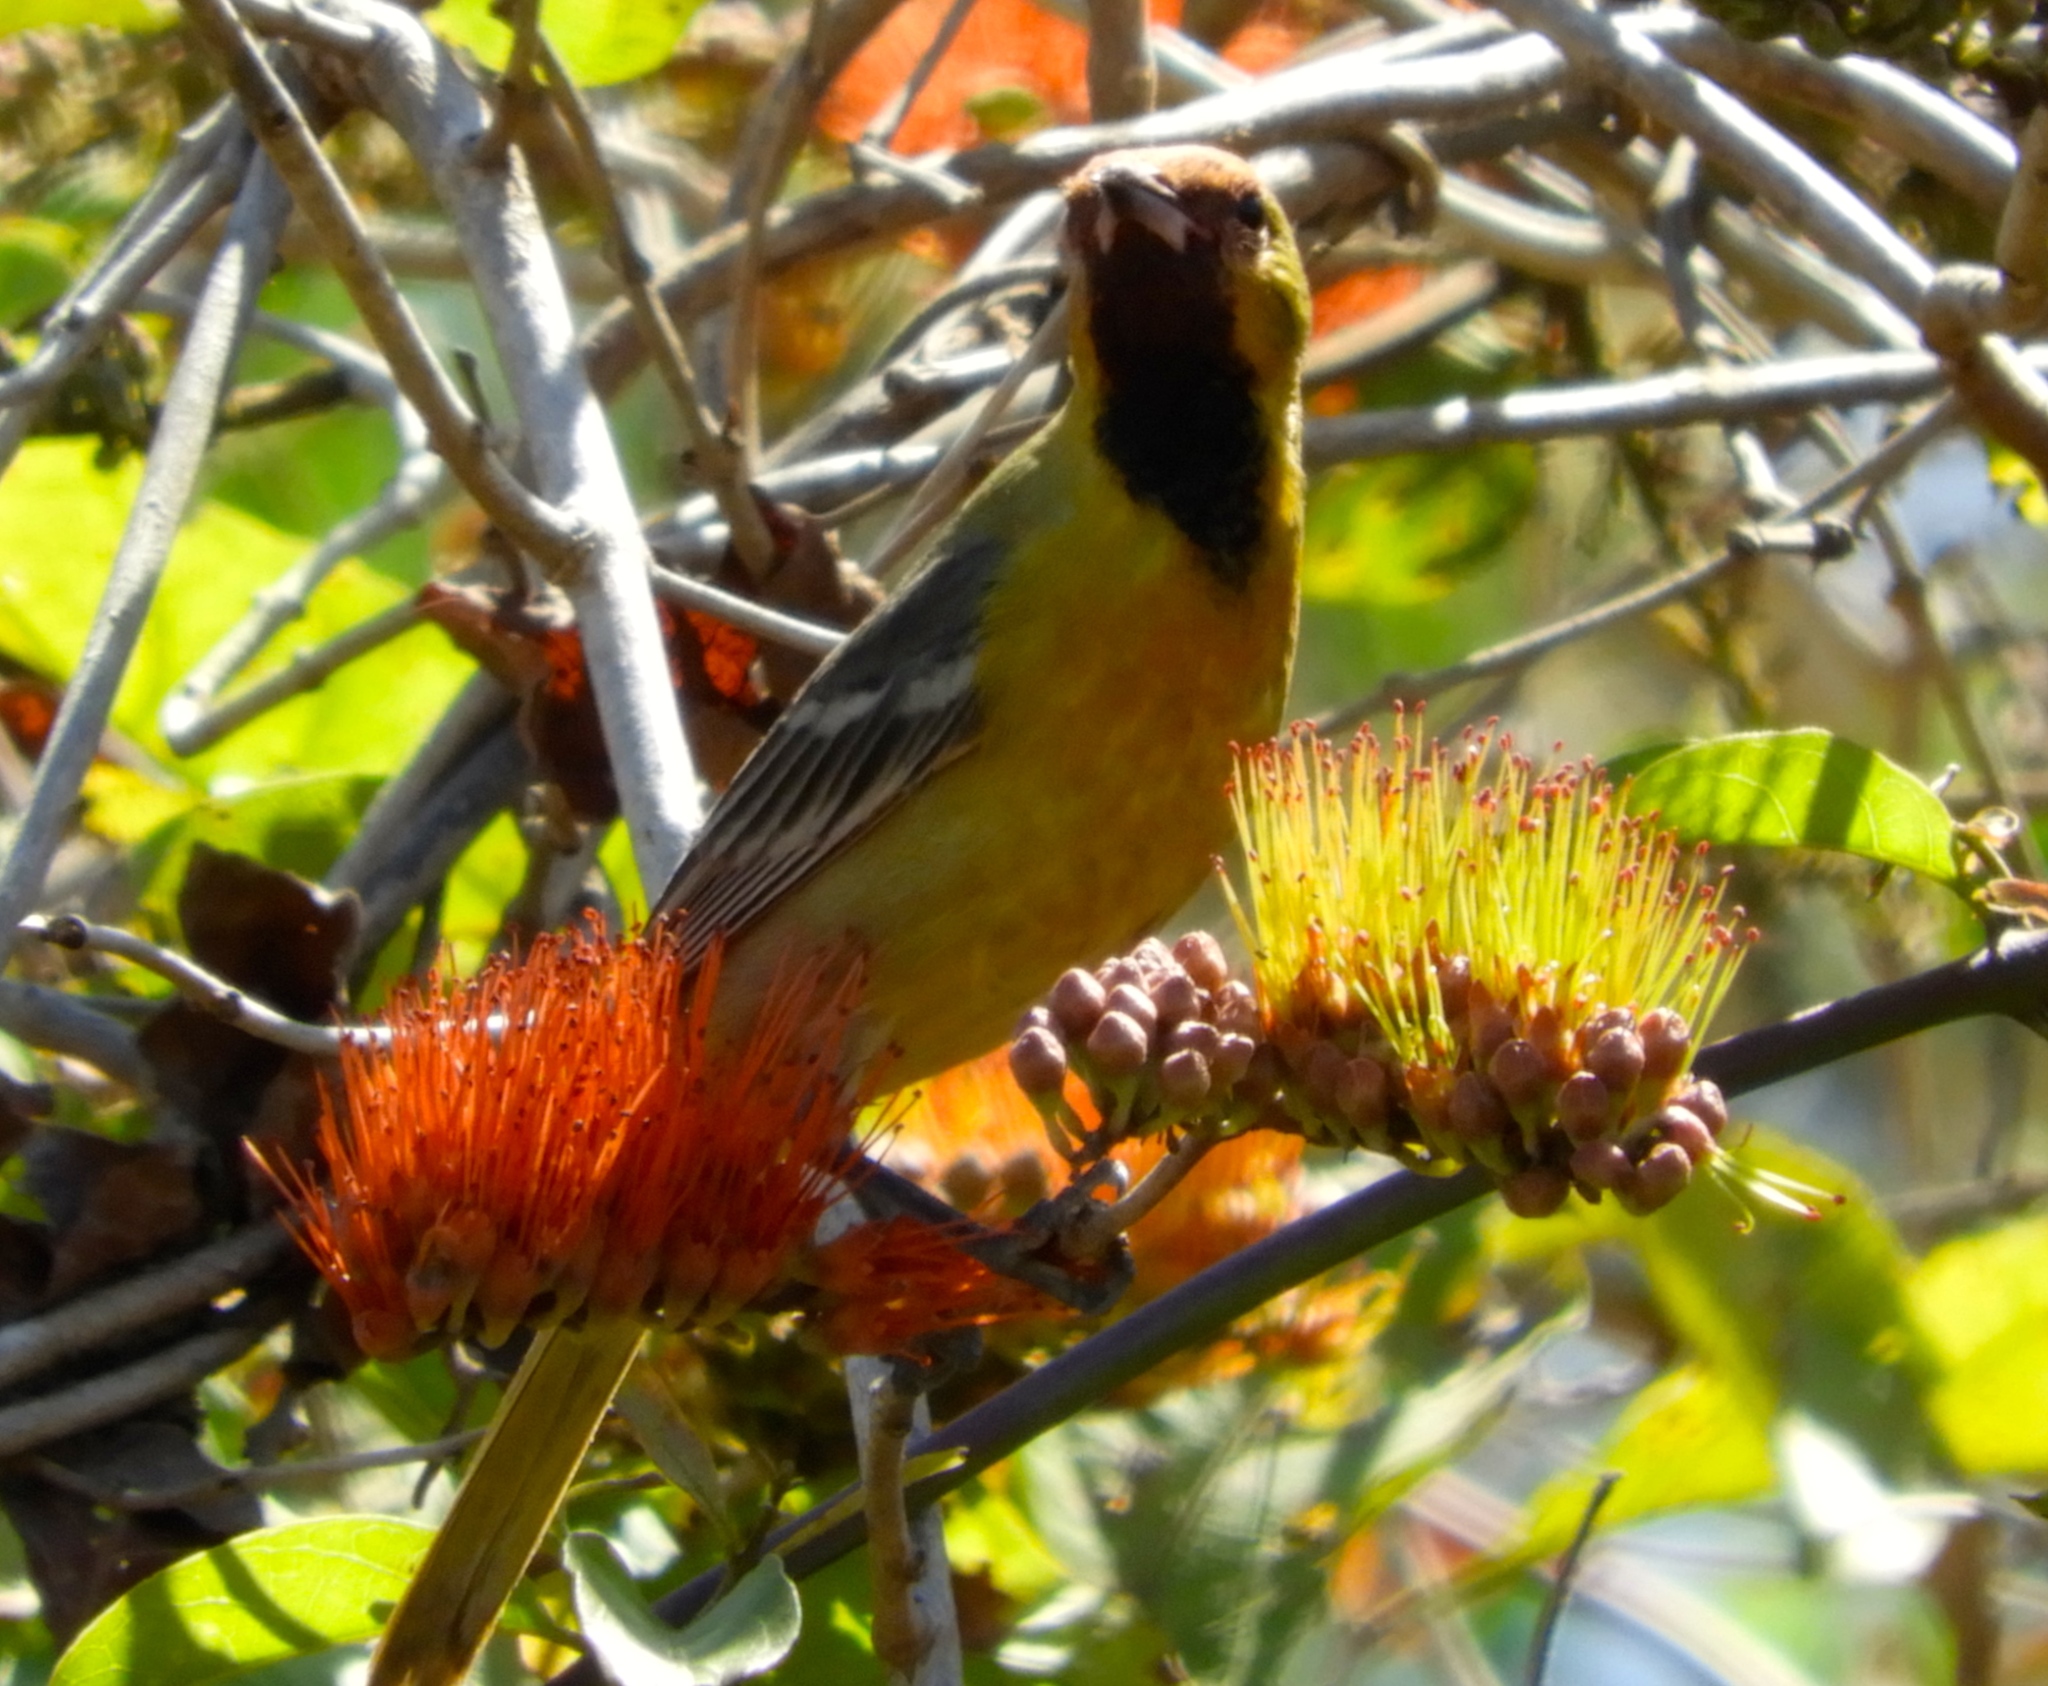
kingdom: Animalia
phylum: Chordata
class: Aves
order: Passeriformes
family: Icteridae
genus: Icterus
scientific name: Icterus spurius
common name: Orchard oriole
